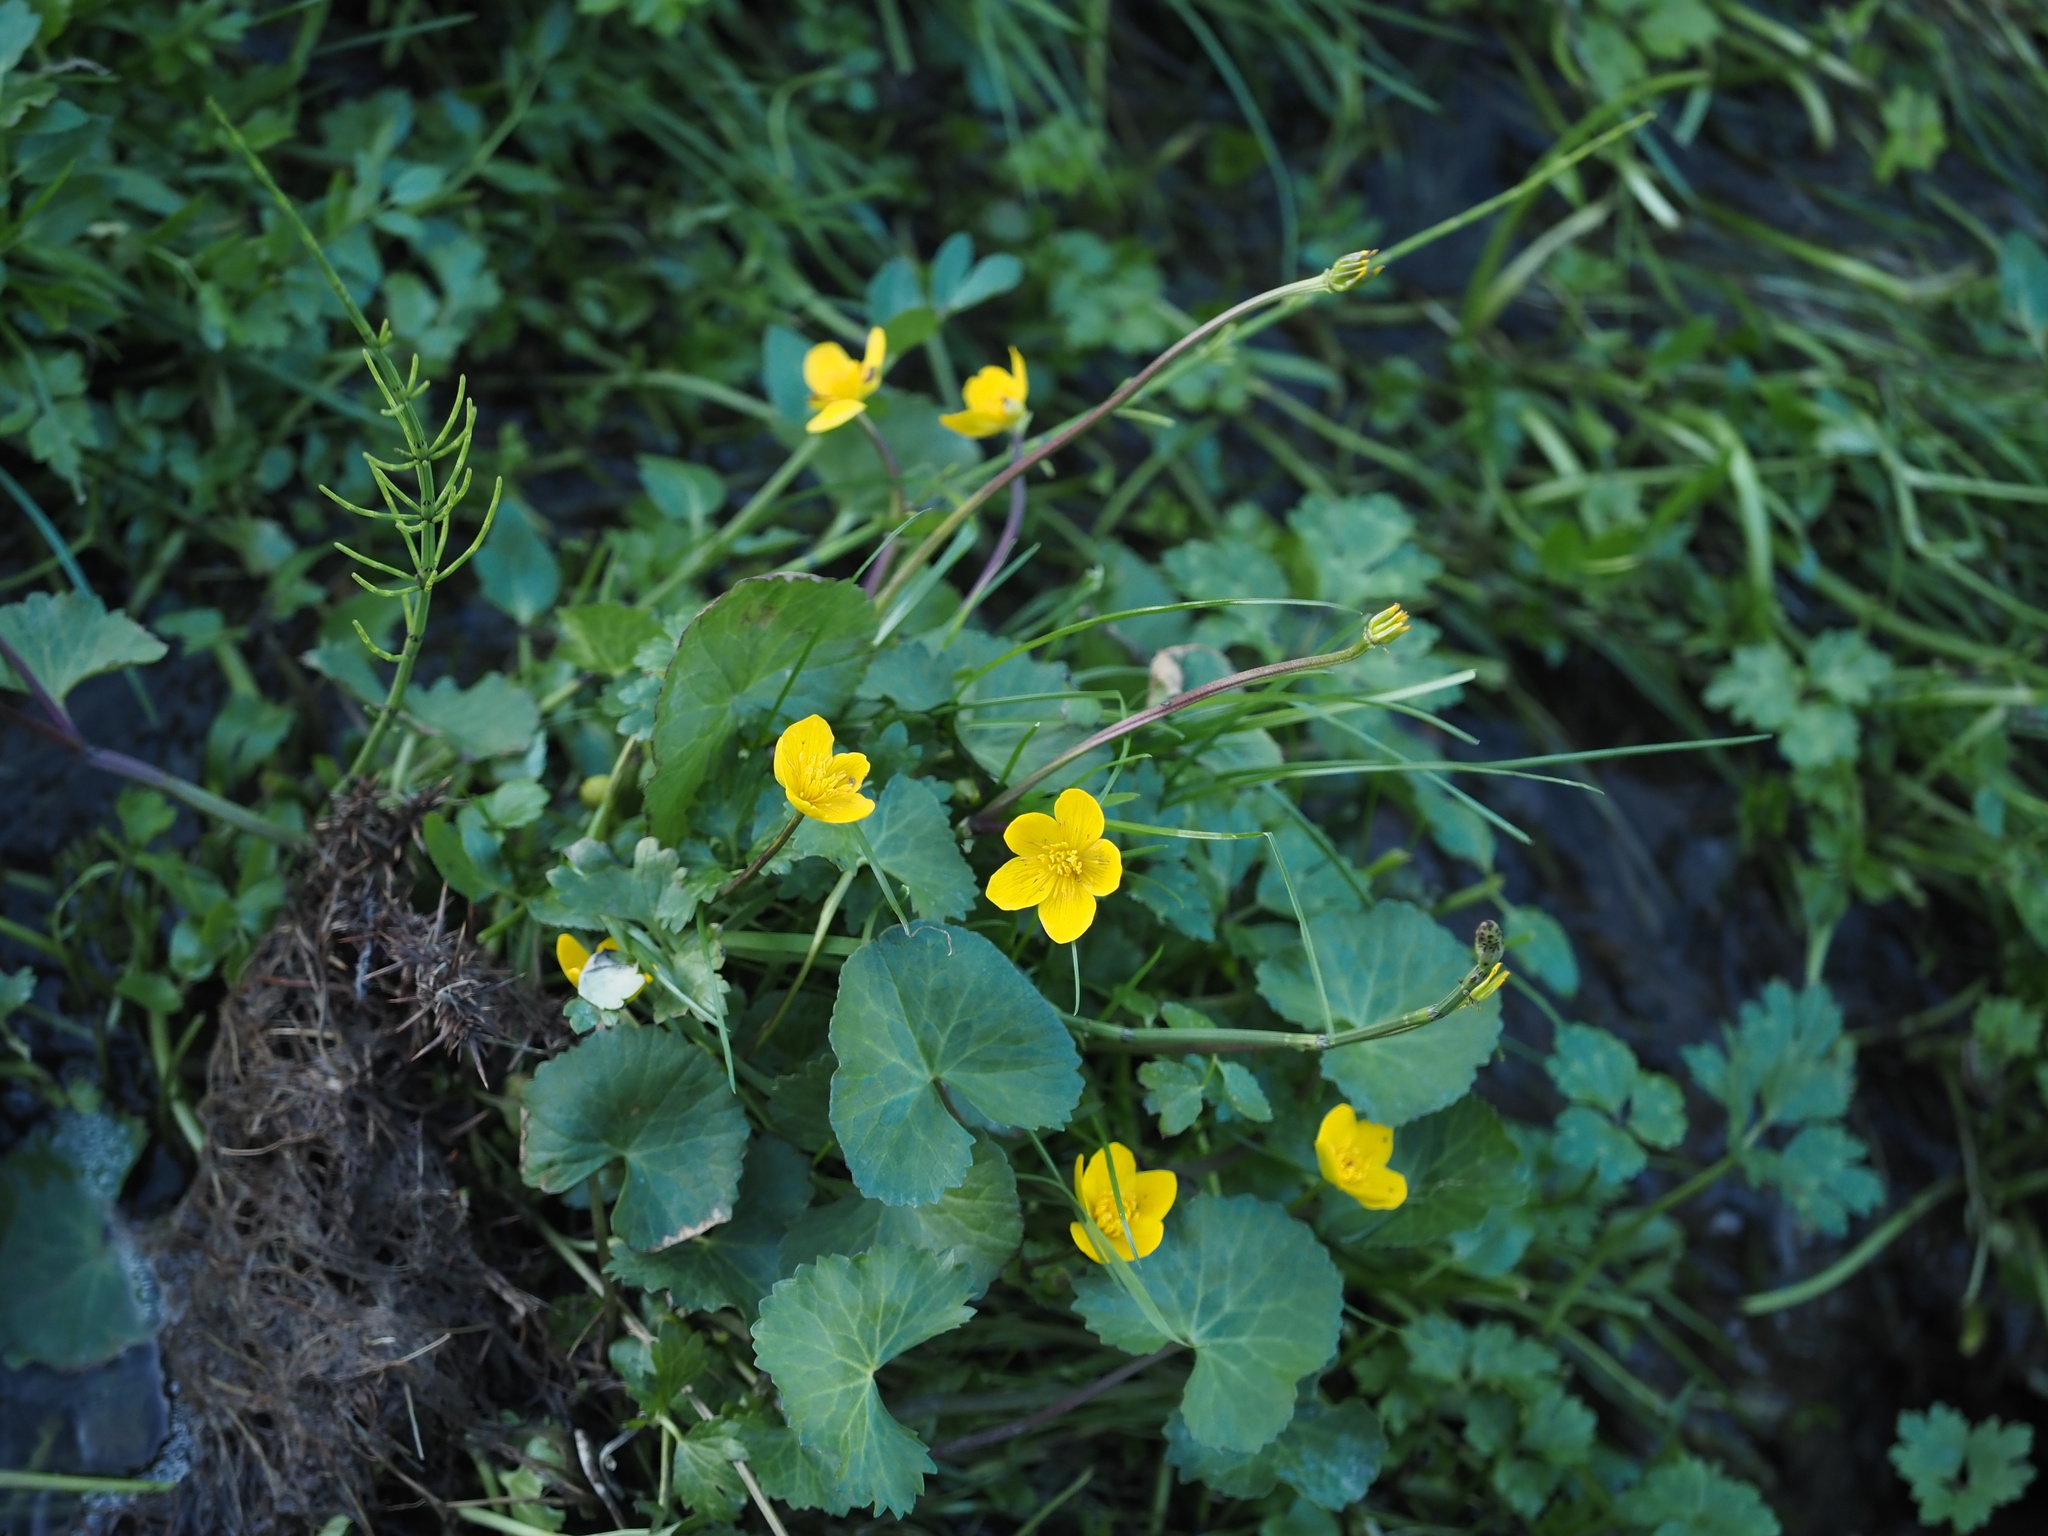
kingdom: Plantae
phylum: Tracheophyta
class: Magnoliopsida
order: Ranunculales
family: Ranunculaceae
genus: Caltha
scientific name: Caltha palustris
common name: Marsh marigold
